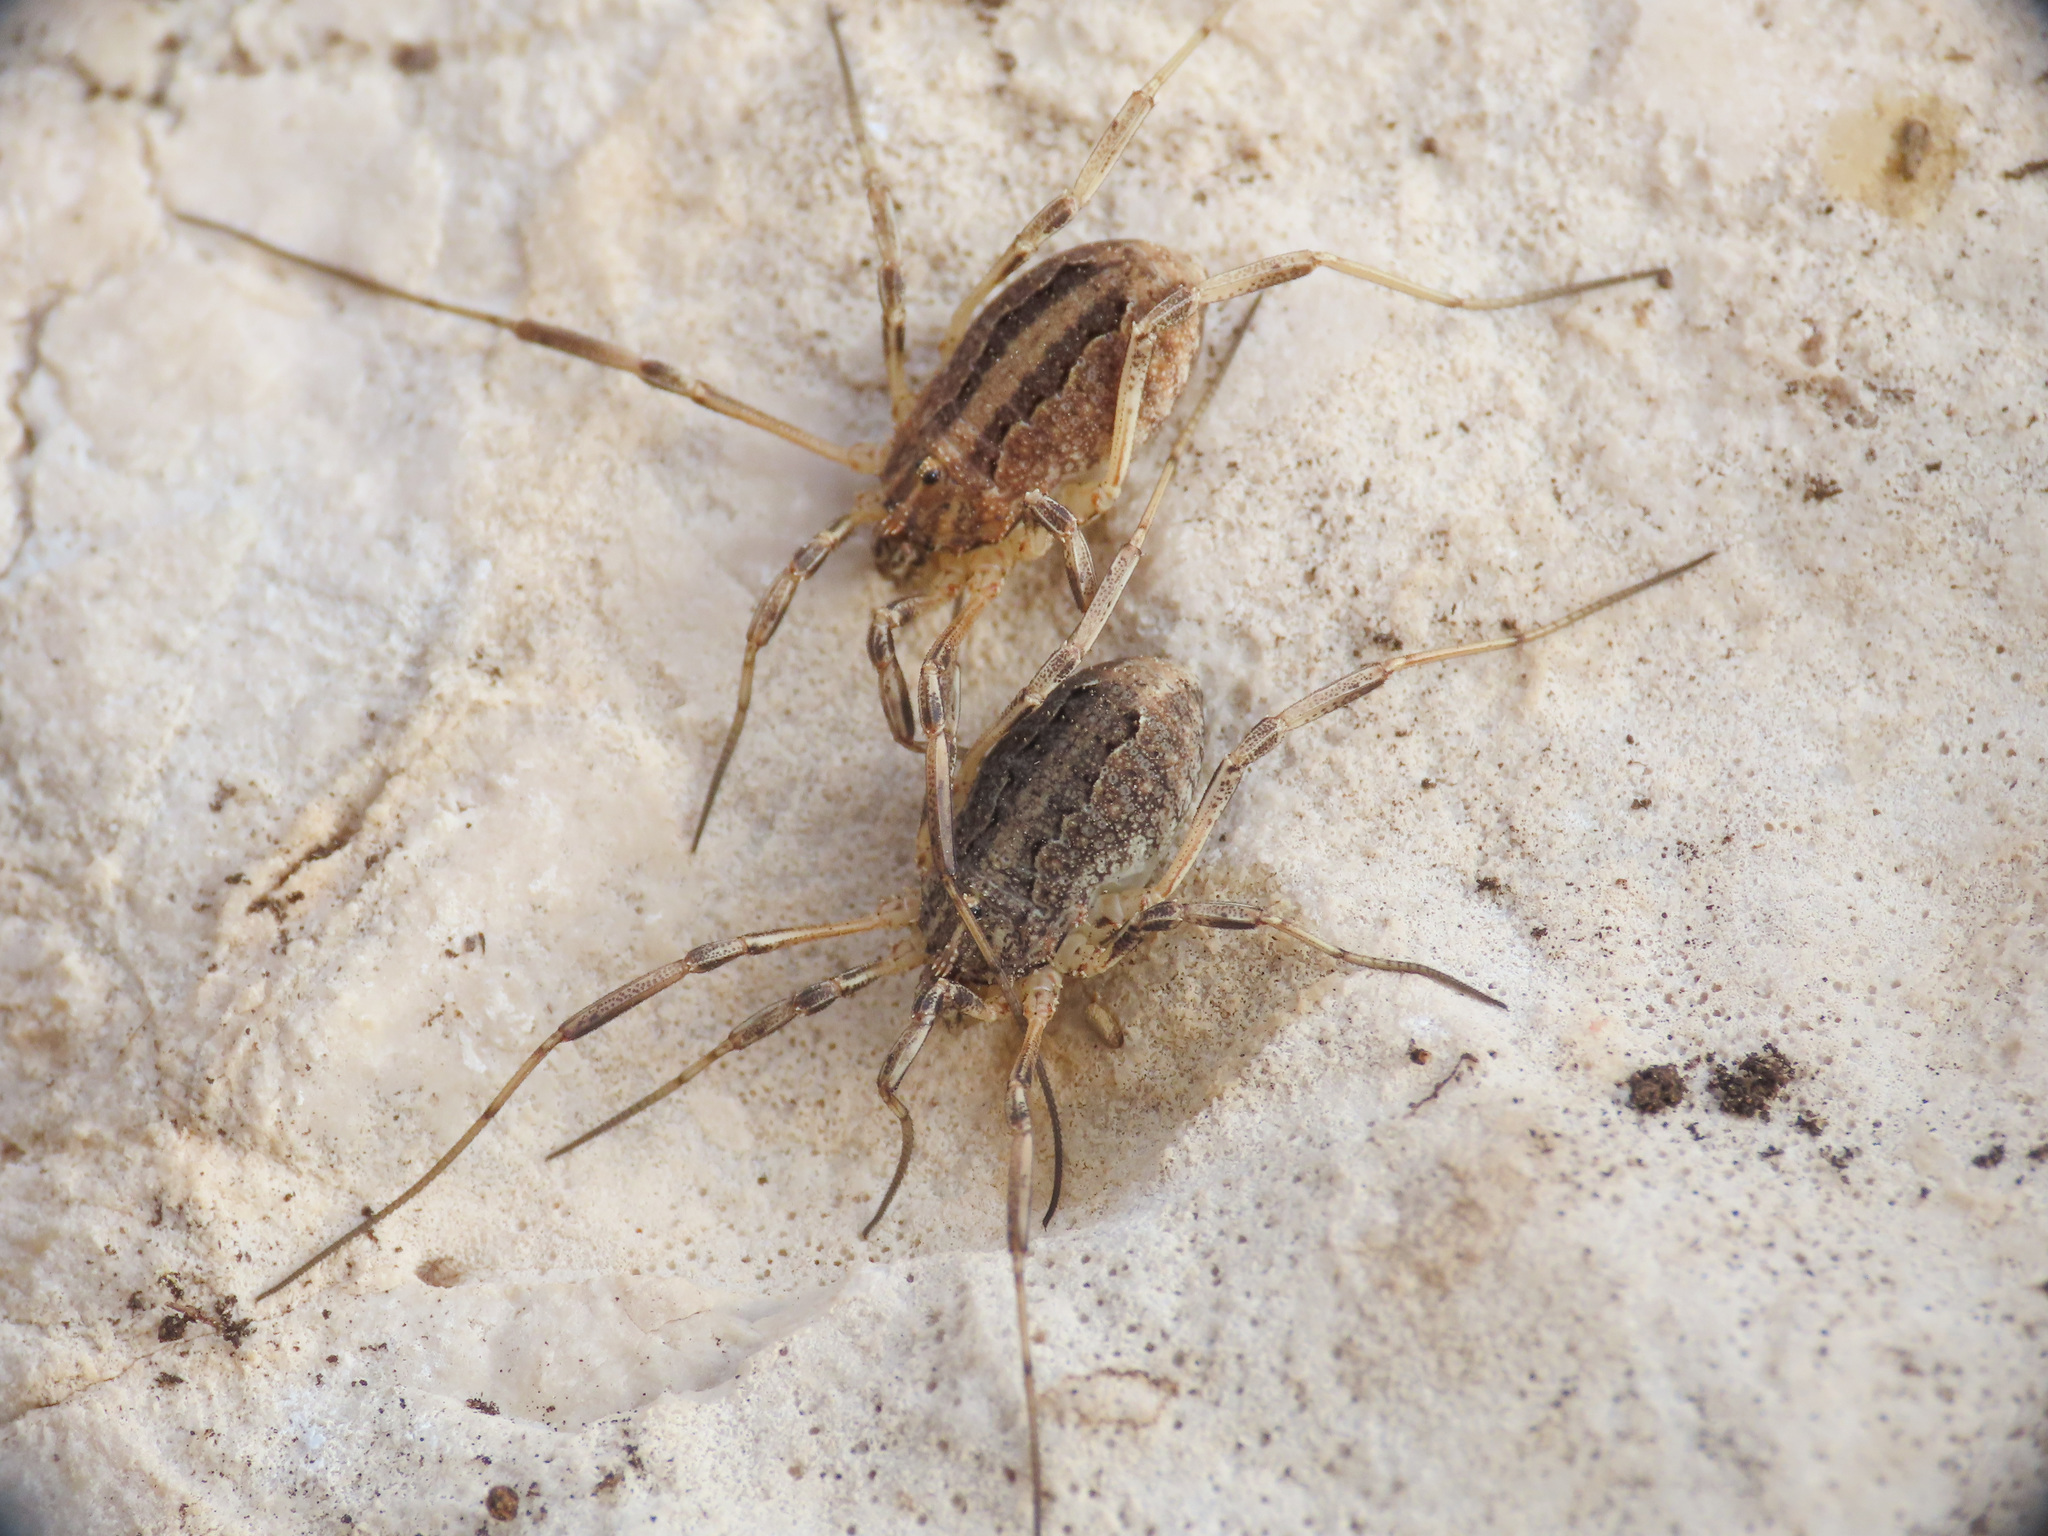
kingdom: Animalia
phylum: Arthropoda
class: Arachnida
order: Opiliones
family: Phalangiidae
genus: Odiellus
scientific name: Odiellus troguloides
